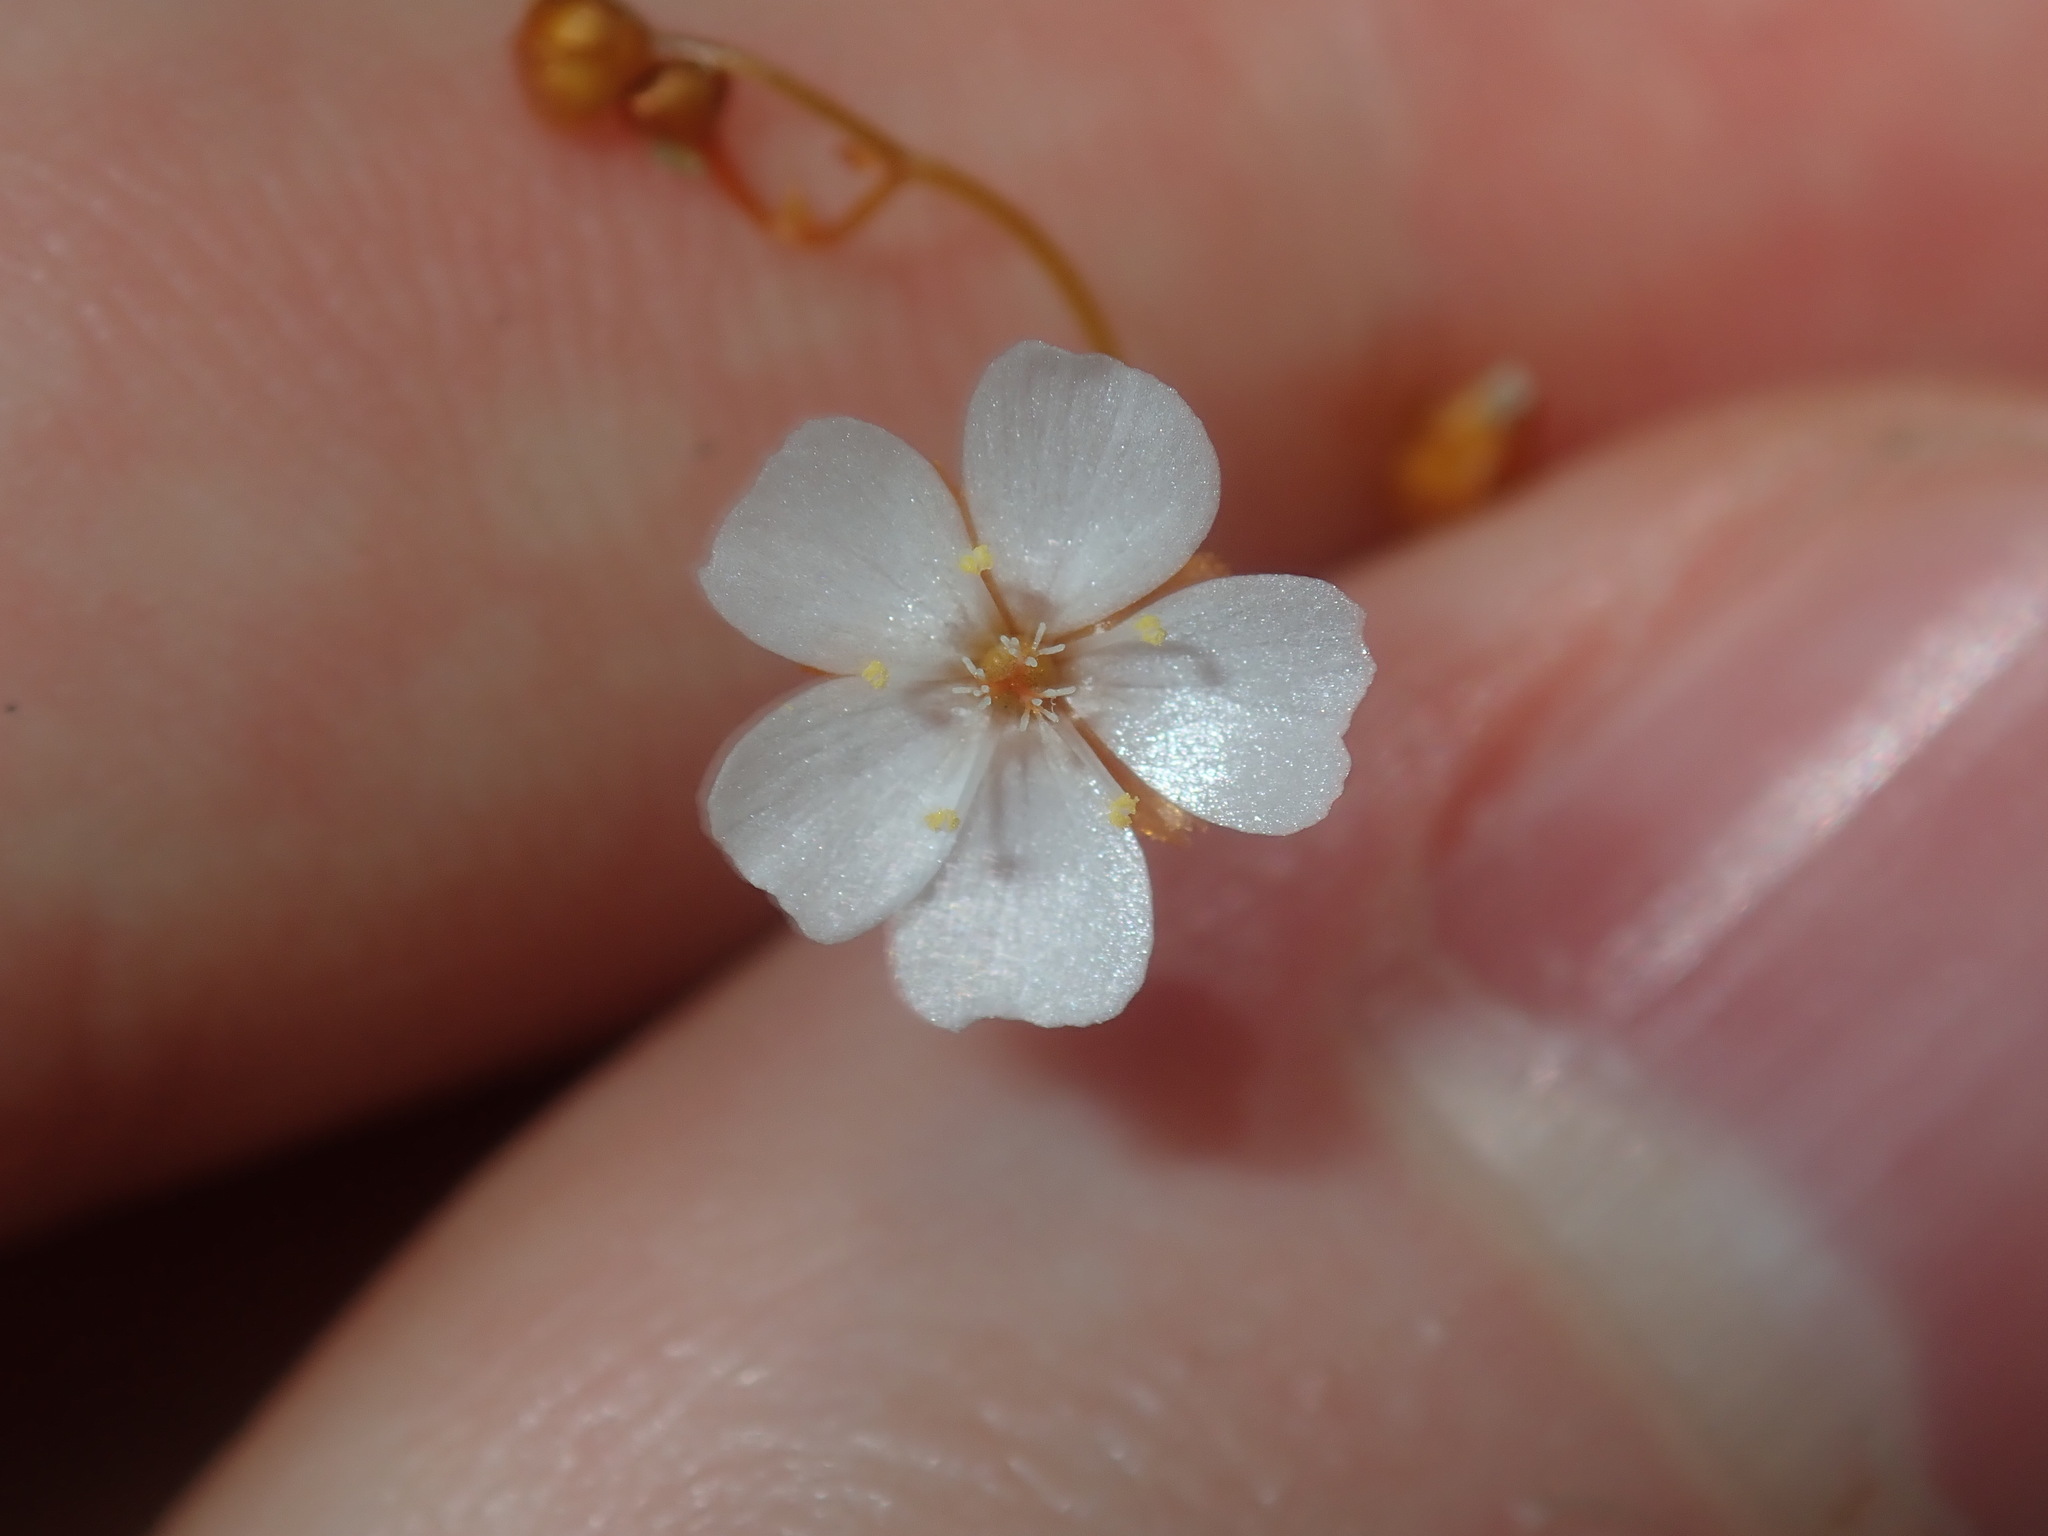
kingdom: Plantae
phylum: Tracheophyta
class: Magnoliopsida
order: Caryophyllales
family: Droseraceae
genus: Drosera
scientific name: Drosera peltata
